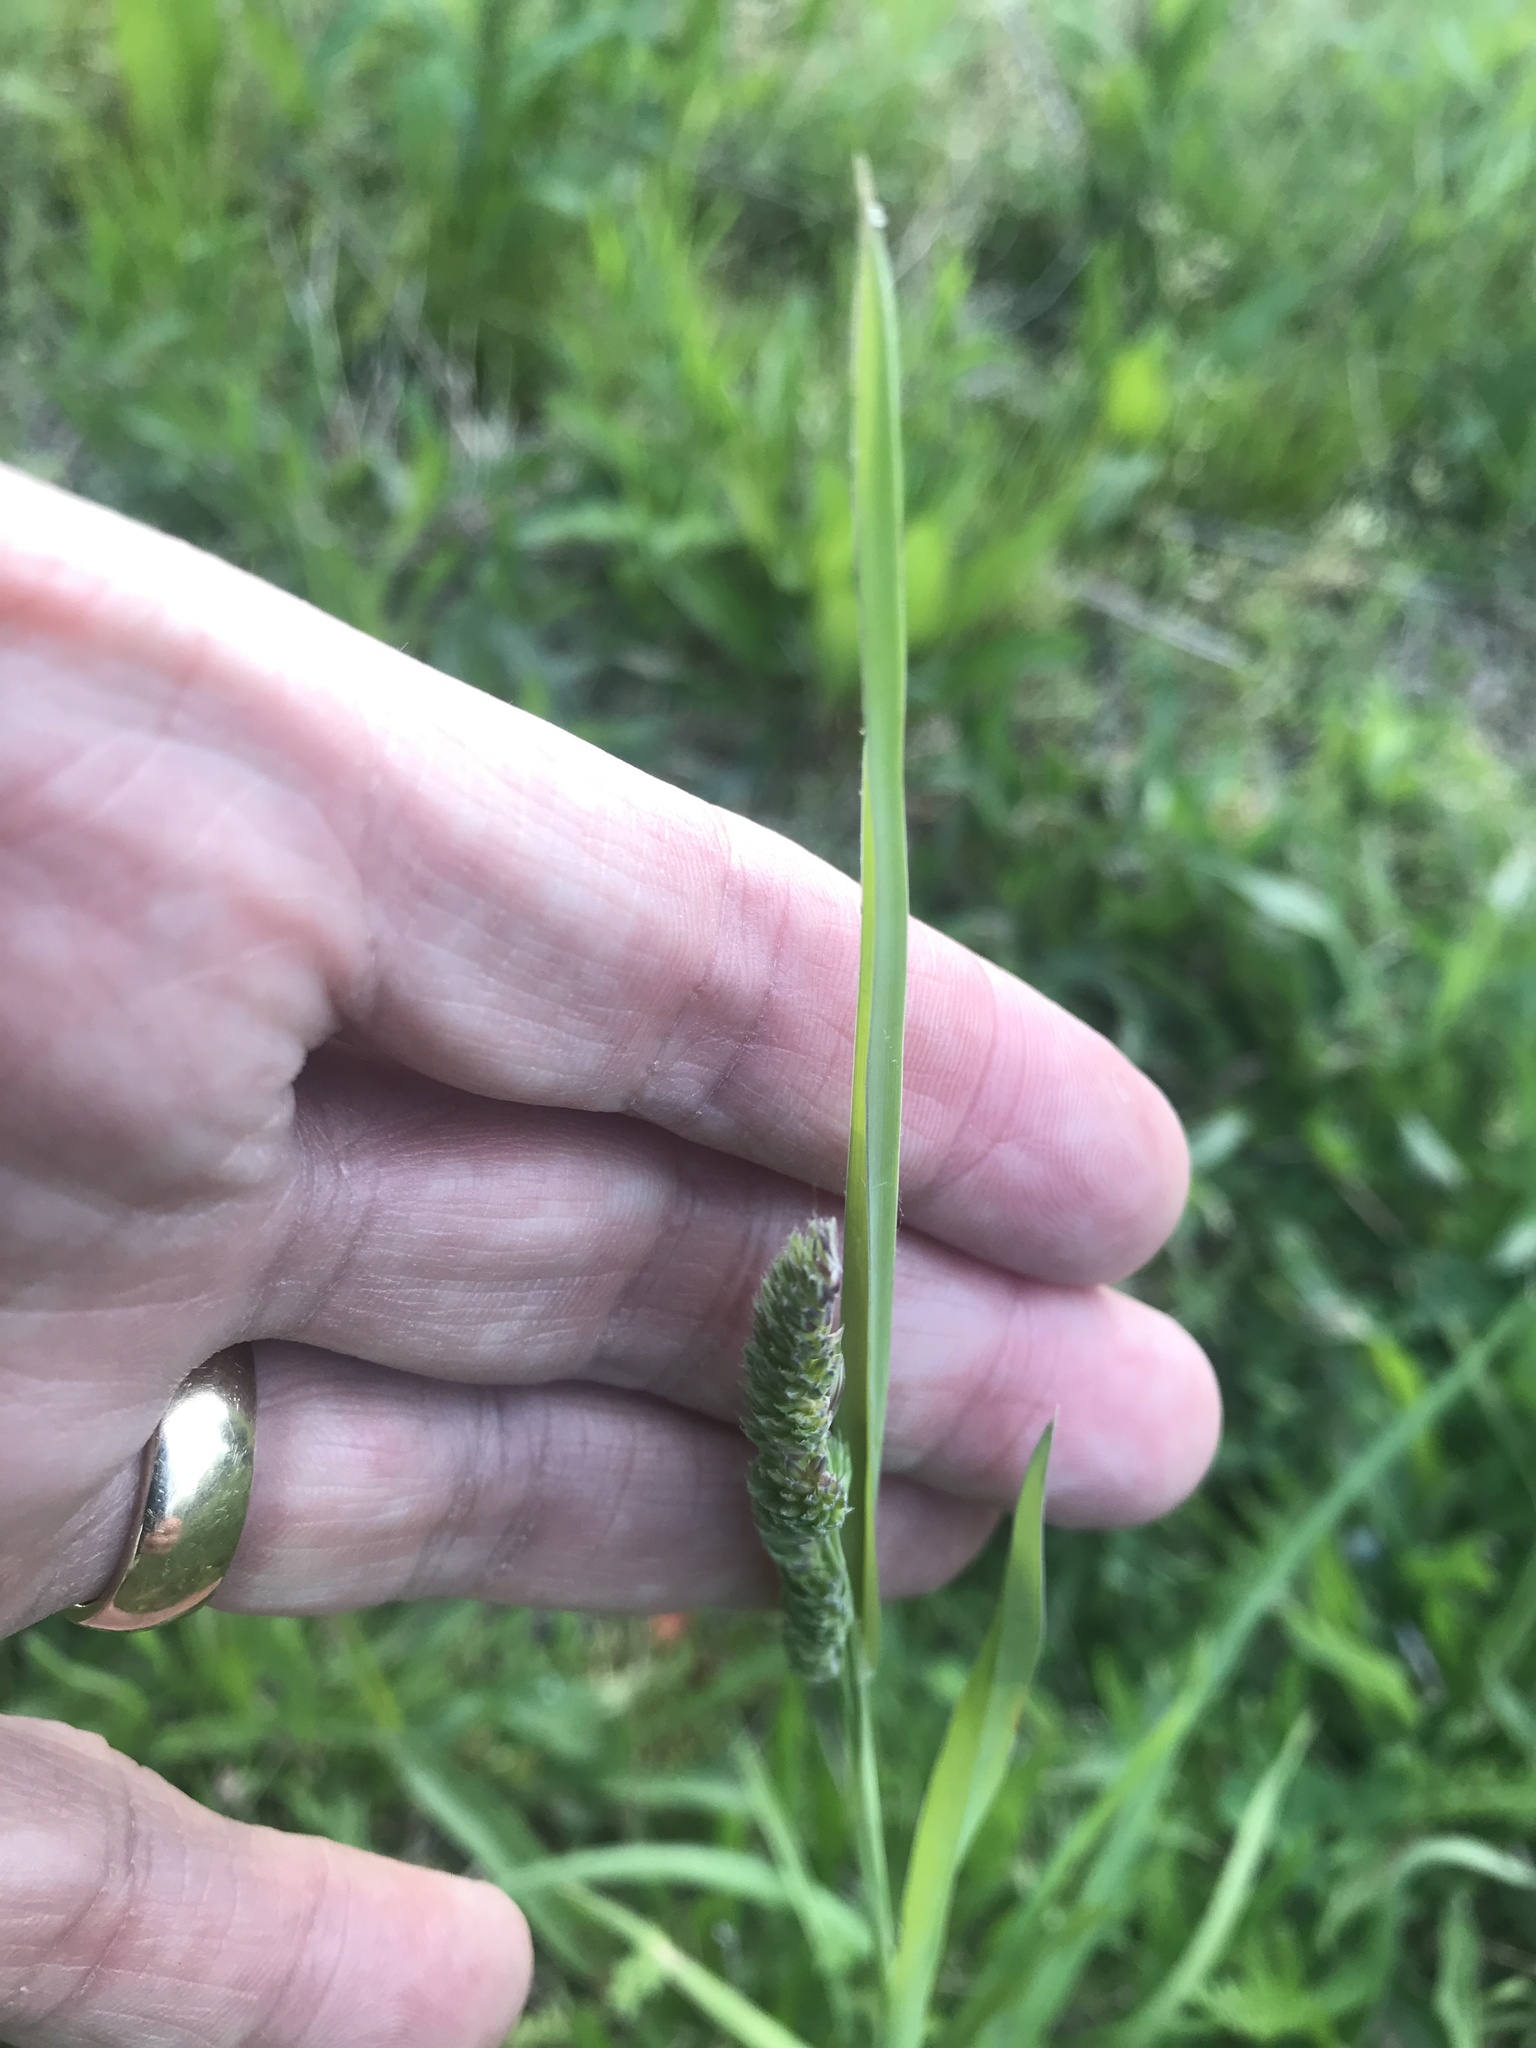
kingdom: Plantae
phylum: Tracheophyta
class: Liliopsida
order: Poales
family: Poaceae
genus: Dactylis
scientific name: Dactylis glomerata
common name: Orchardgrass
